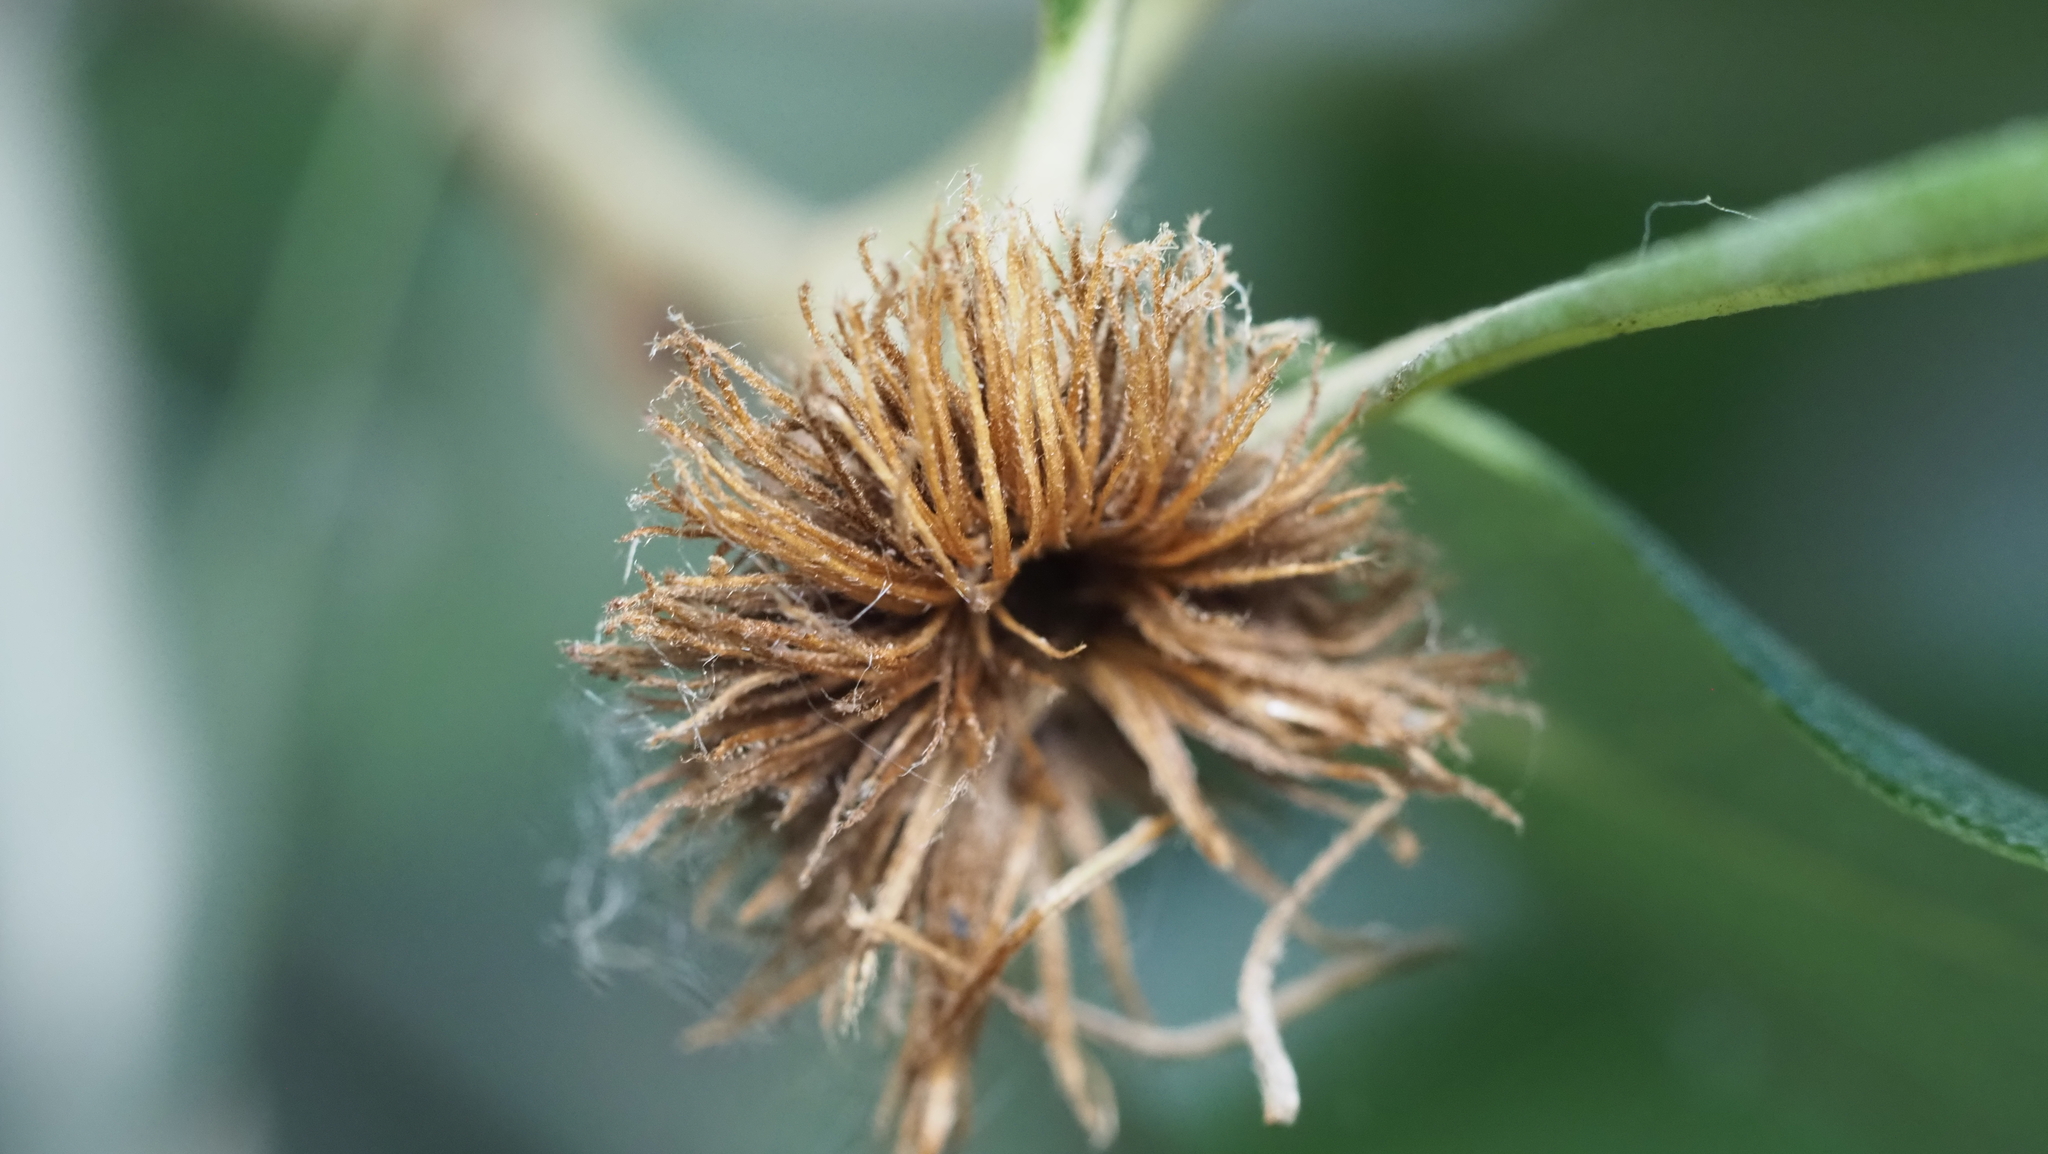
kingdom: Animalia
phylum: Arthropoda
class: Insecta
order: Hymenoptera
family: Cynipidae
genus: Andricus
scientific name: Andricus quercusfoliatus
